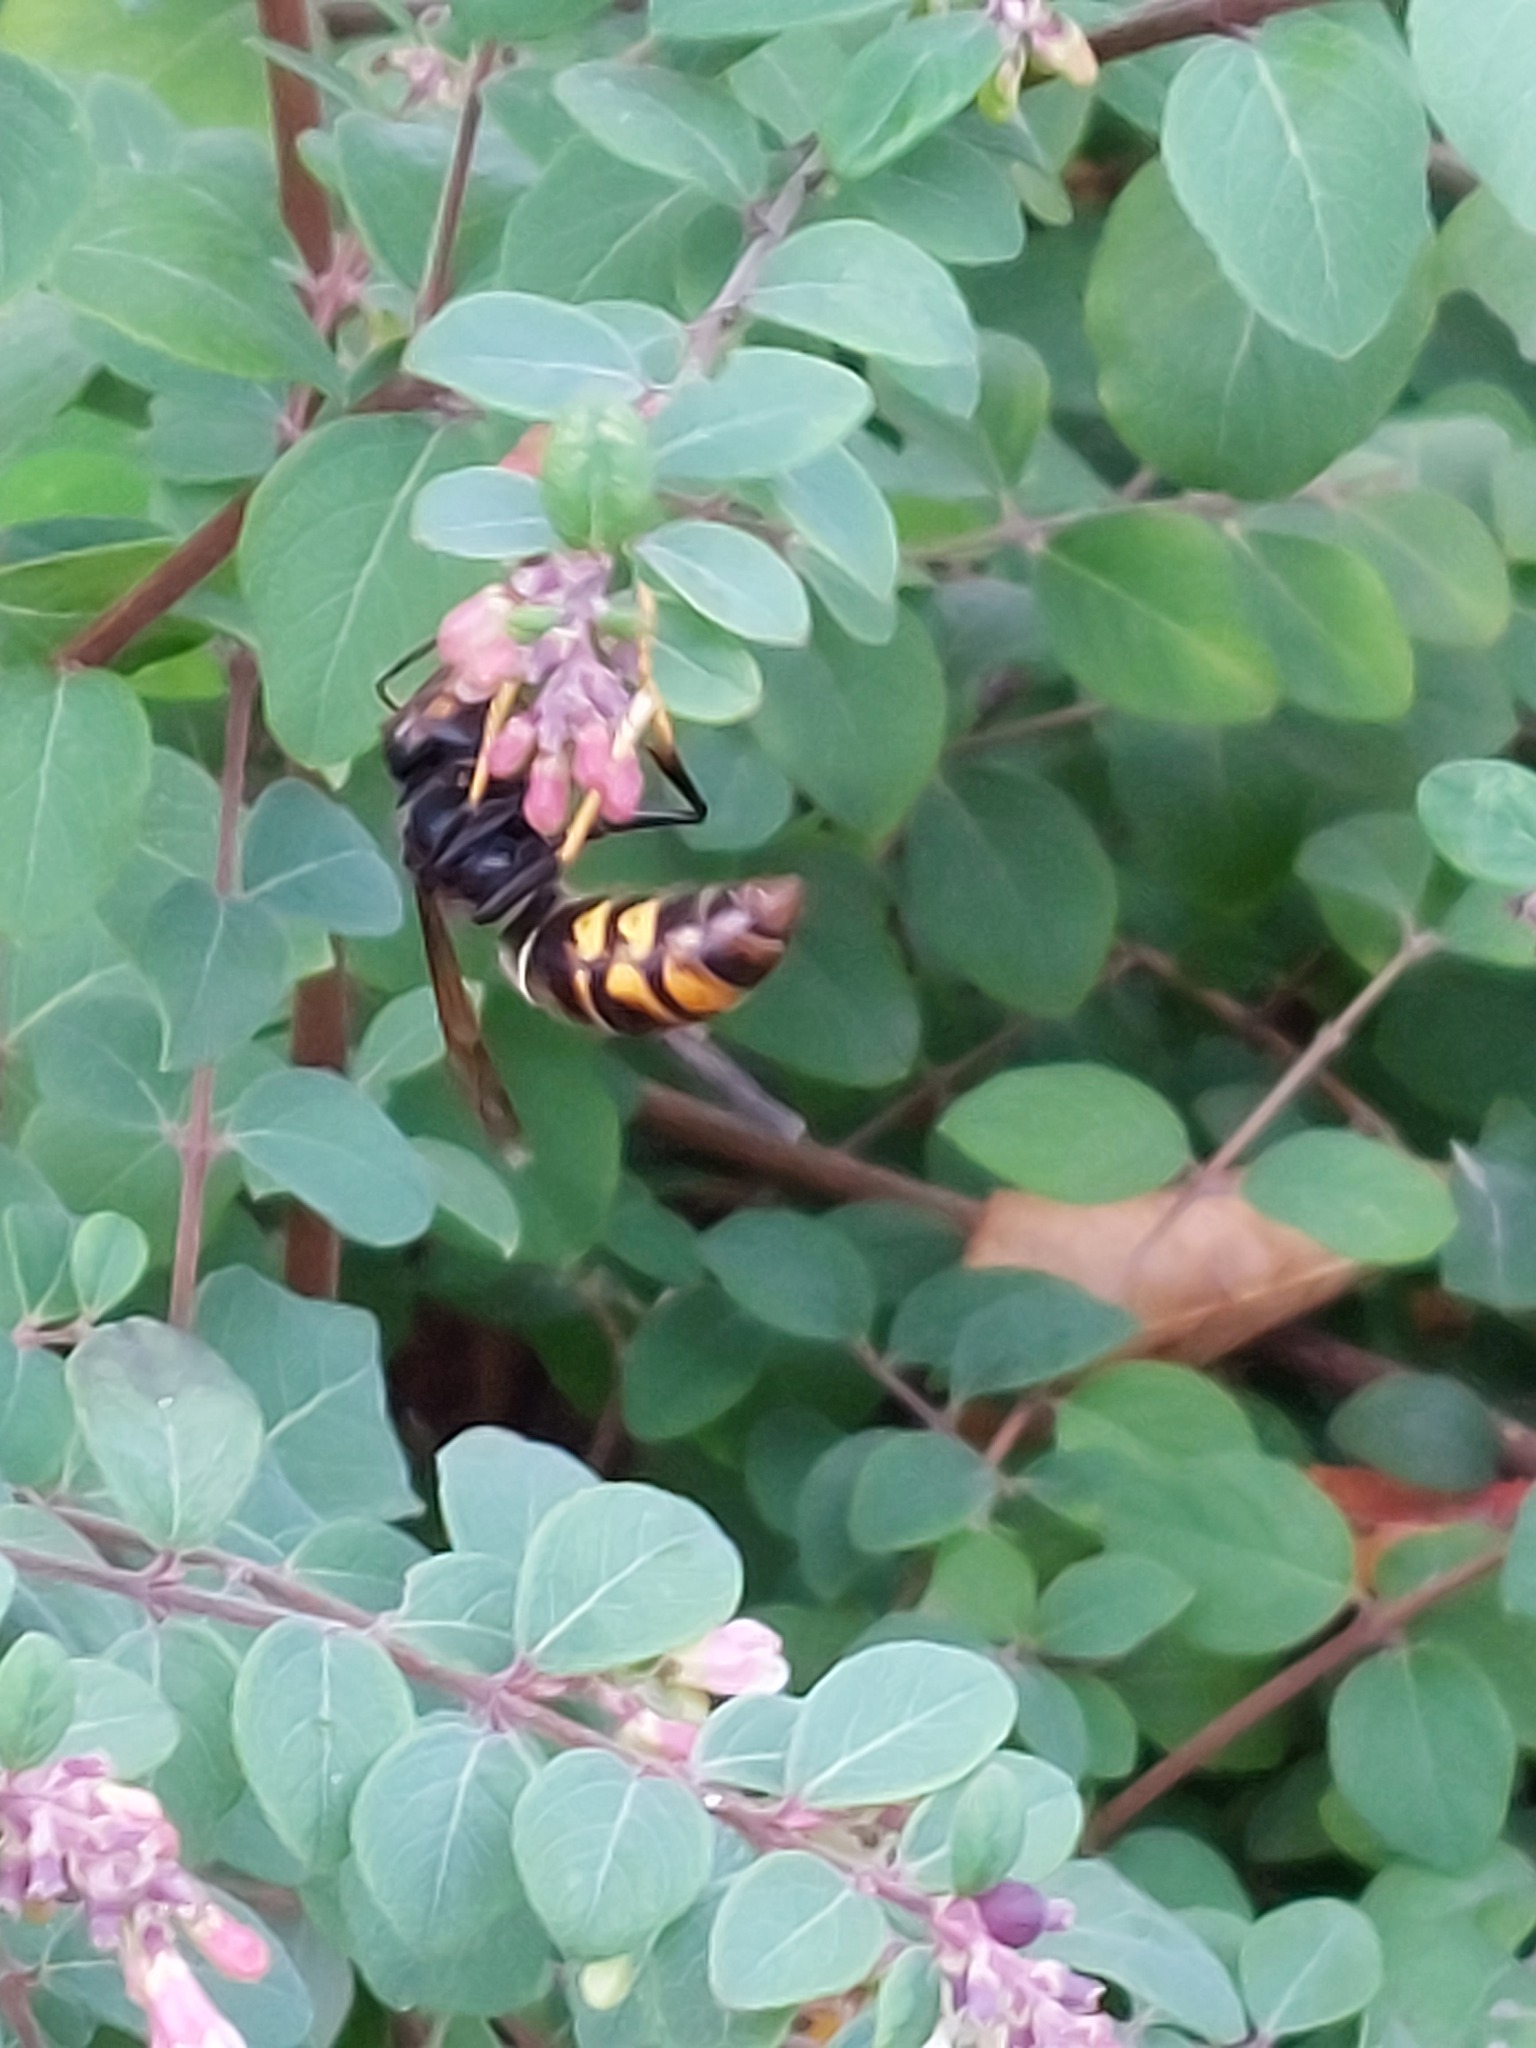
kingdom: Animalia
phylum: Arthropoda
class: Insecta
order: Hymenoptera
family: Vespidae
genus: Vespa
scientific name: Vespa velutina
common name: Asian hornet
